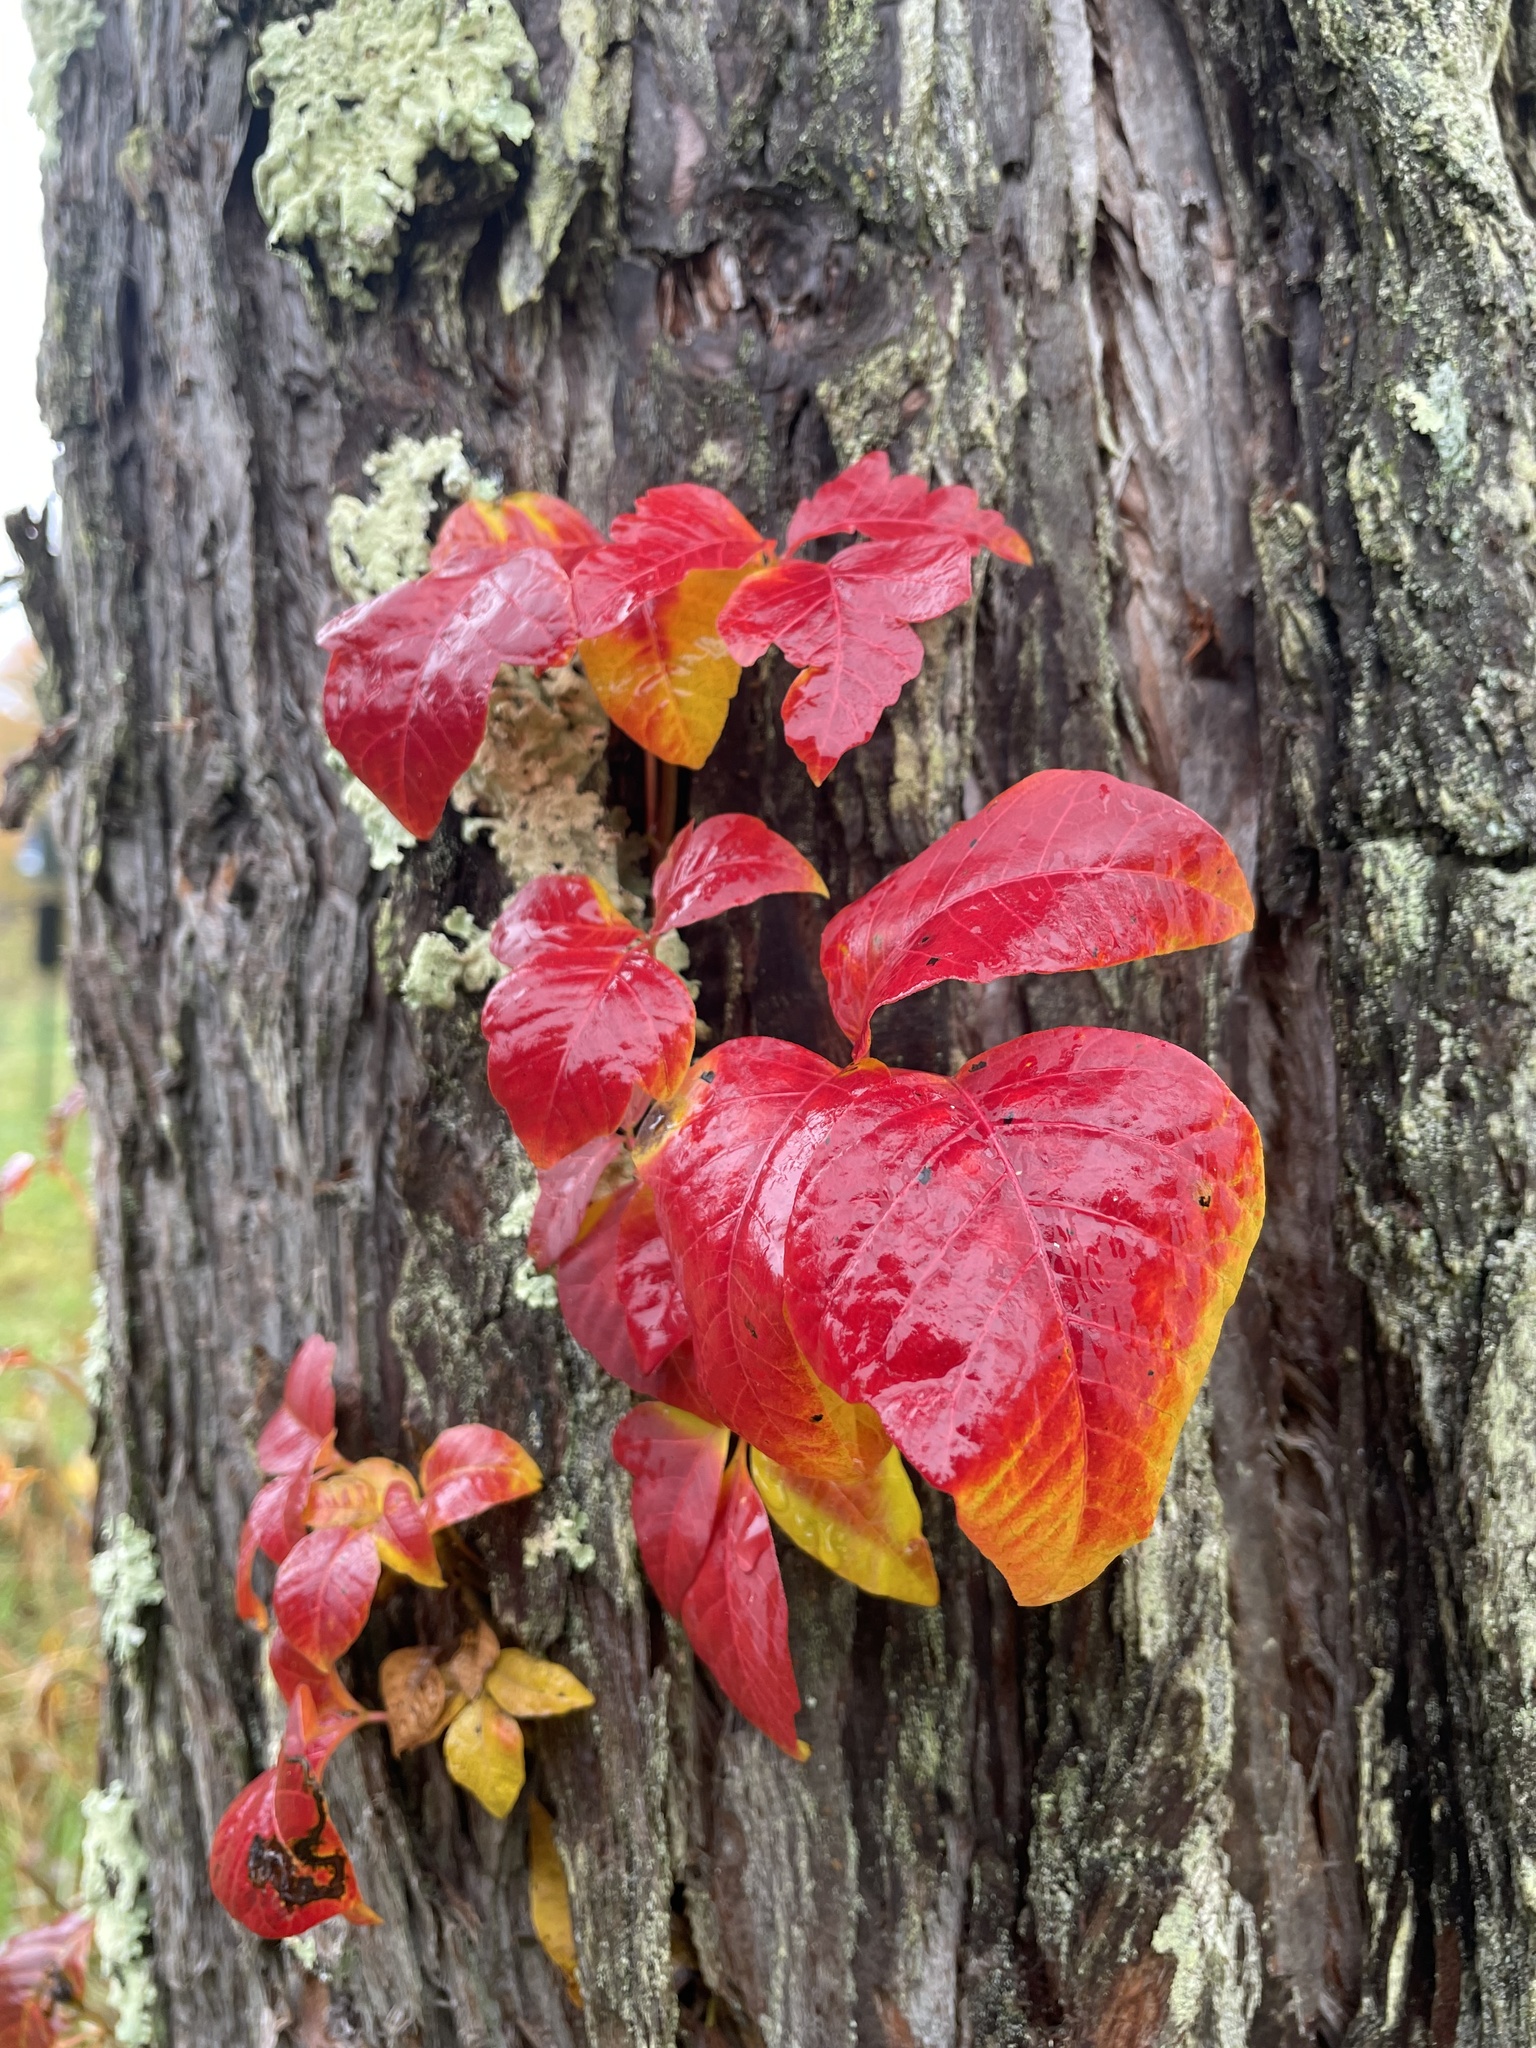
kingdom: Plantae
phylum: Tracheophyta
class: Magnoliopsida
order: Sapindales
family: Anacardiaceae
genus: Toxicodendron
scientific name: Toxicodendron radicans
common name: Poison ivy
